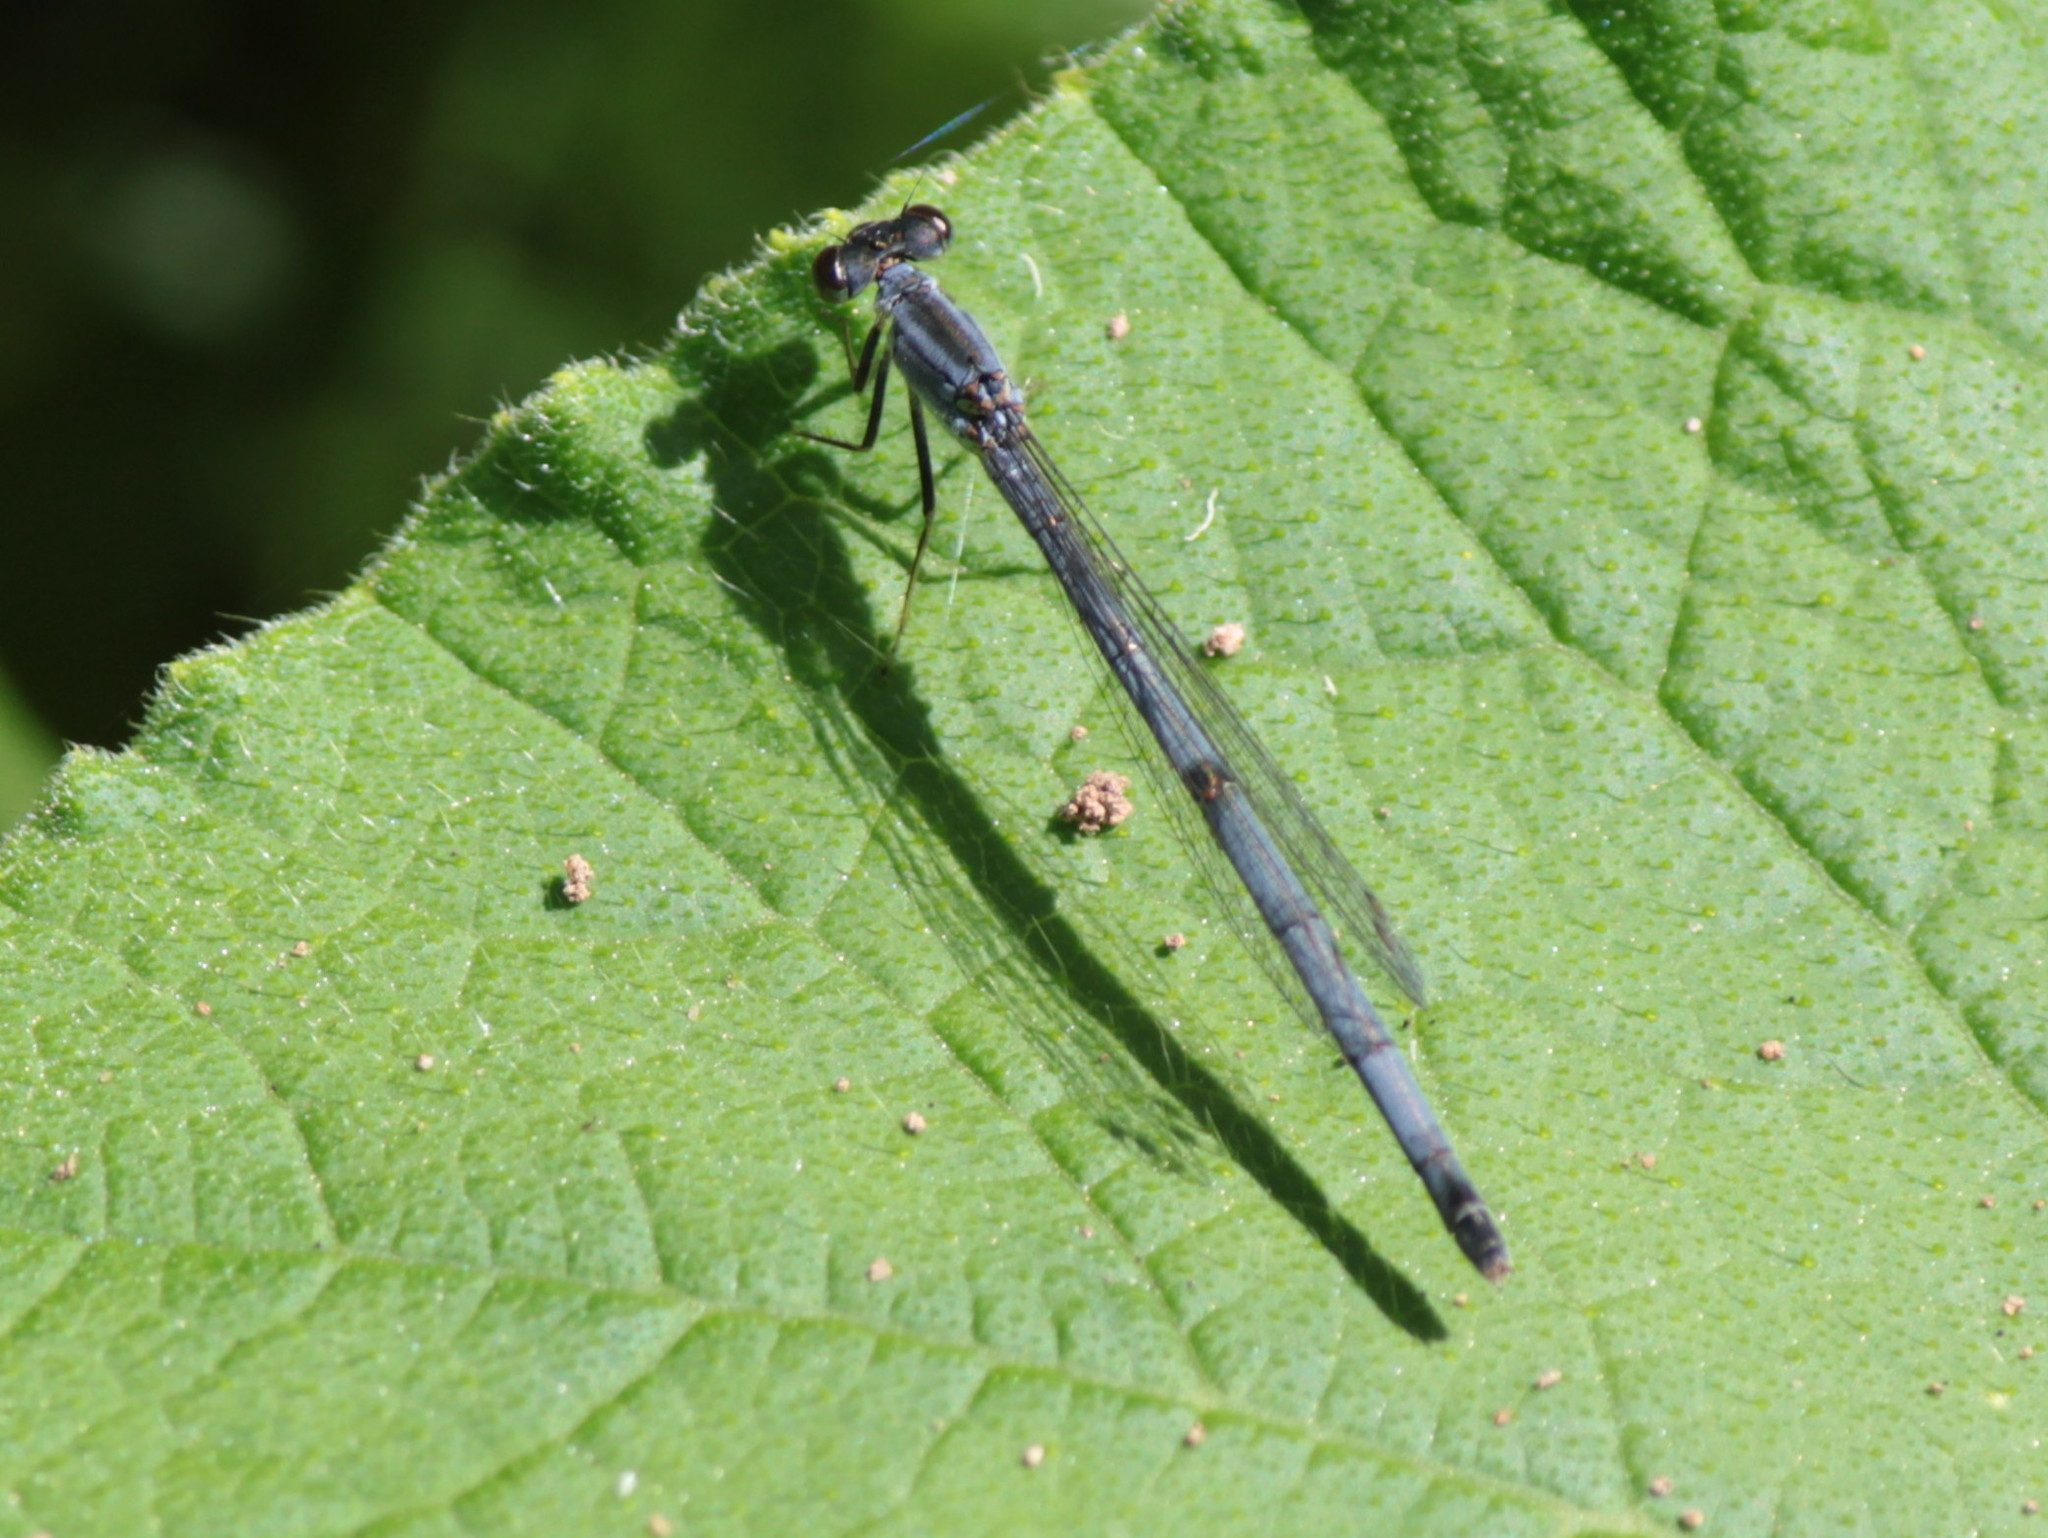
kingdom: Animalia
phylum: Arthropoda
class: Insecta
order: Odonata
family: Coenagrionidae
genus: Ischnura
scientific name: Ischnura verticalis
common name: Eastern forktail
